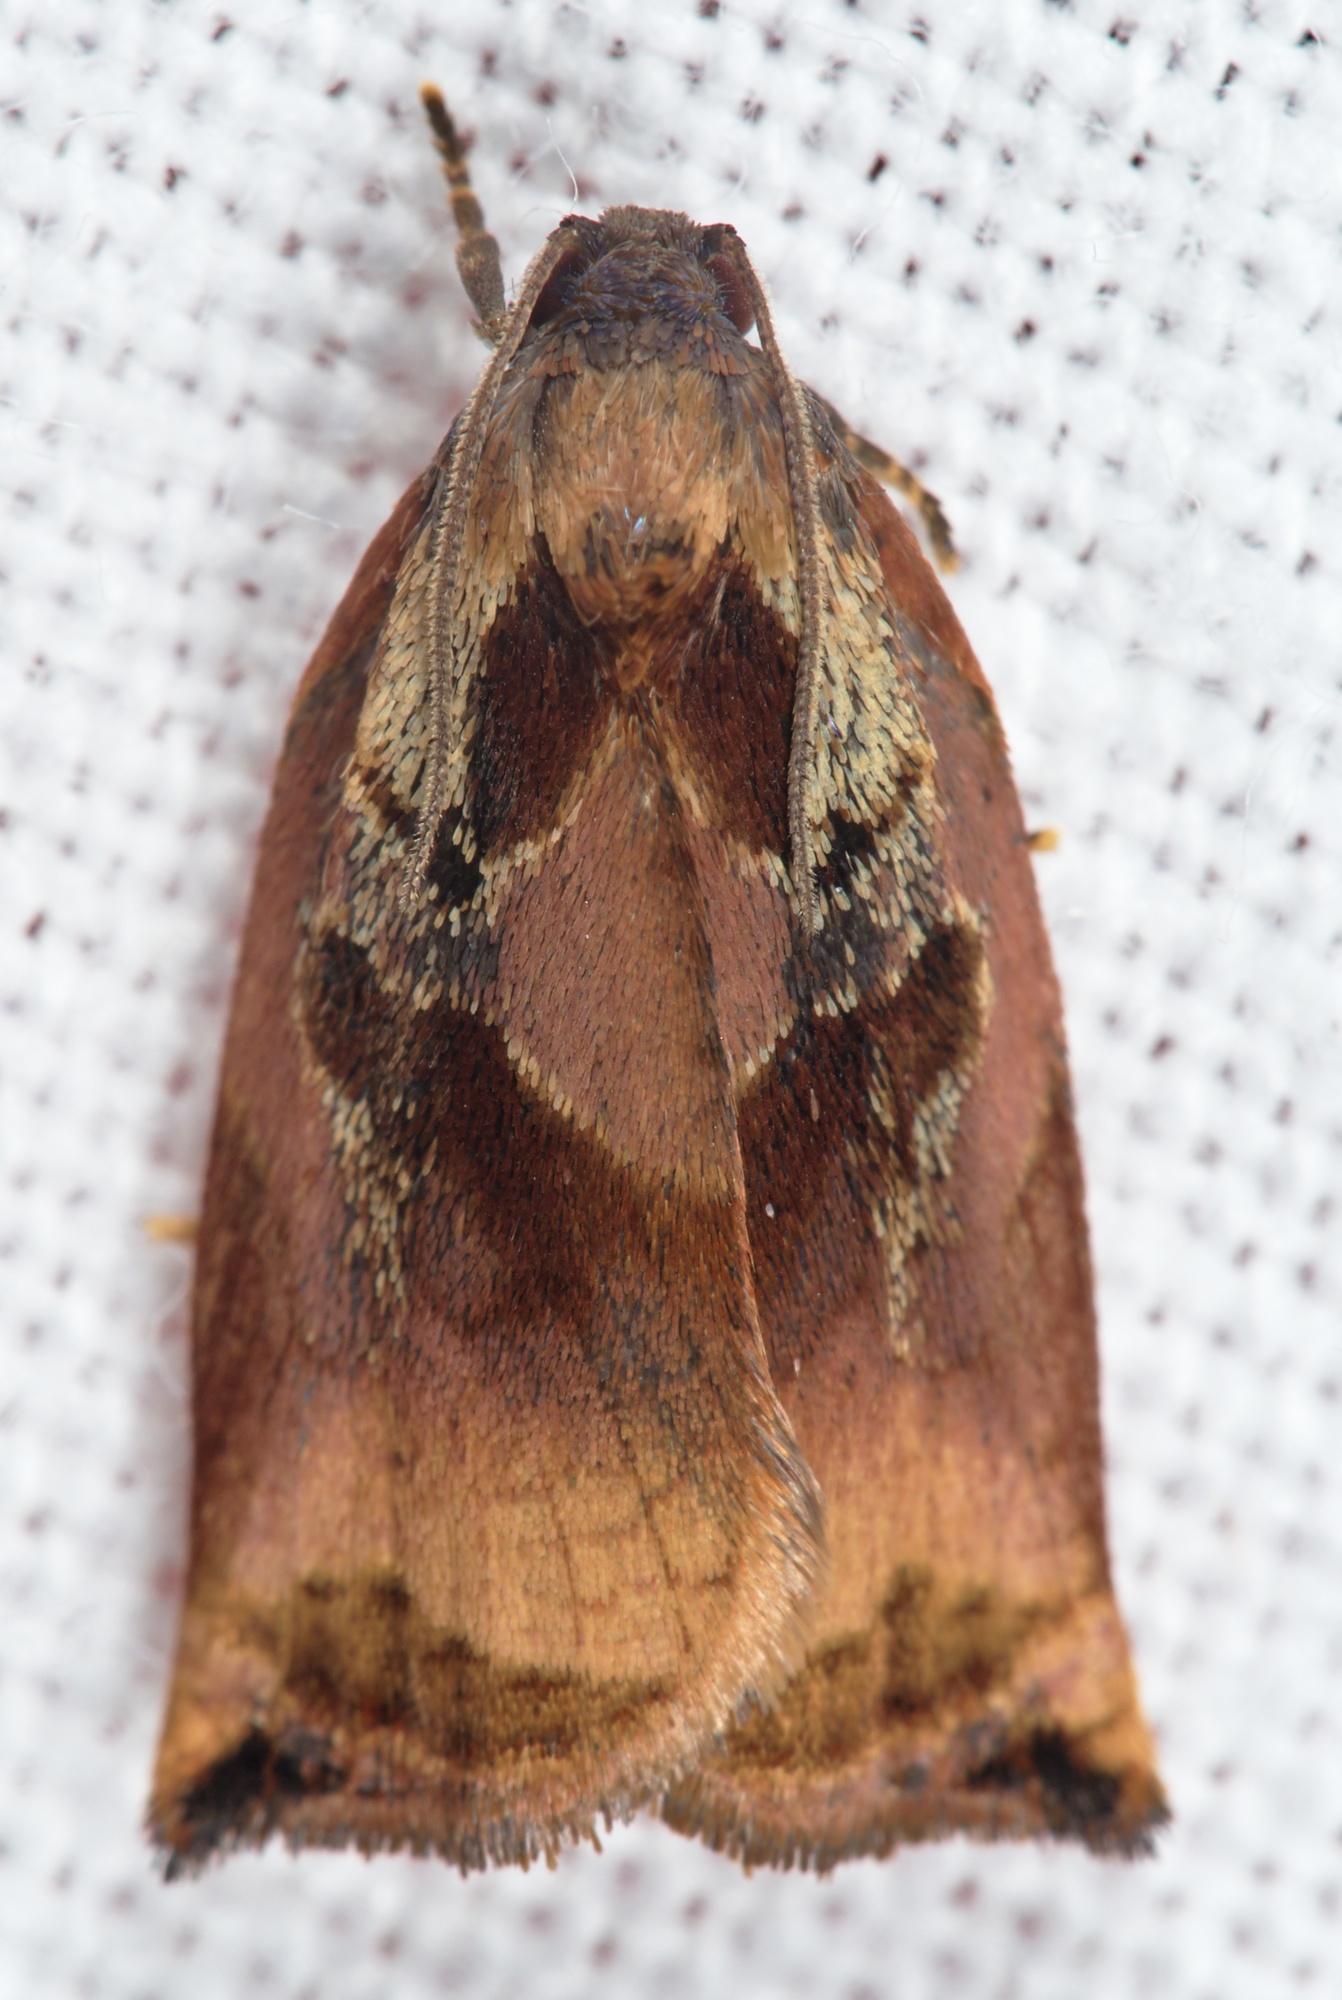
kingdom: Animalia
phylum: Arthropoda
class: Insecta
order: Lepidoptera
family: Tortricidae
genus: Archips
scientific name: Archips podana
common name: Large fruit-tree tortrix
